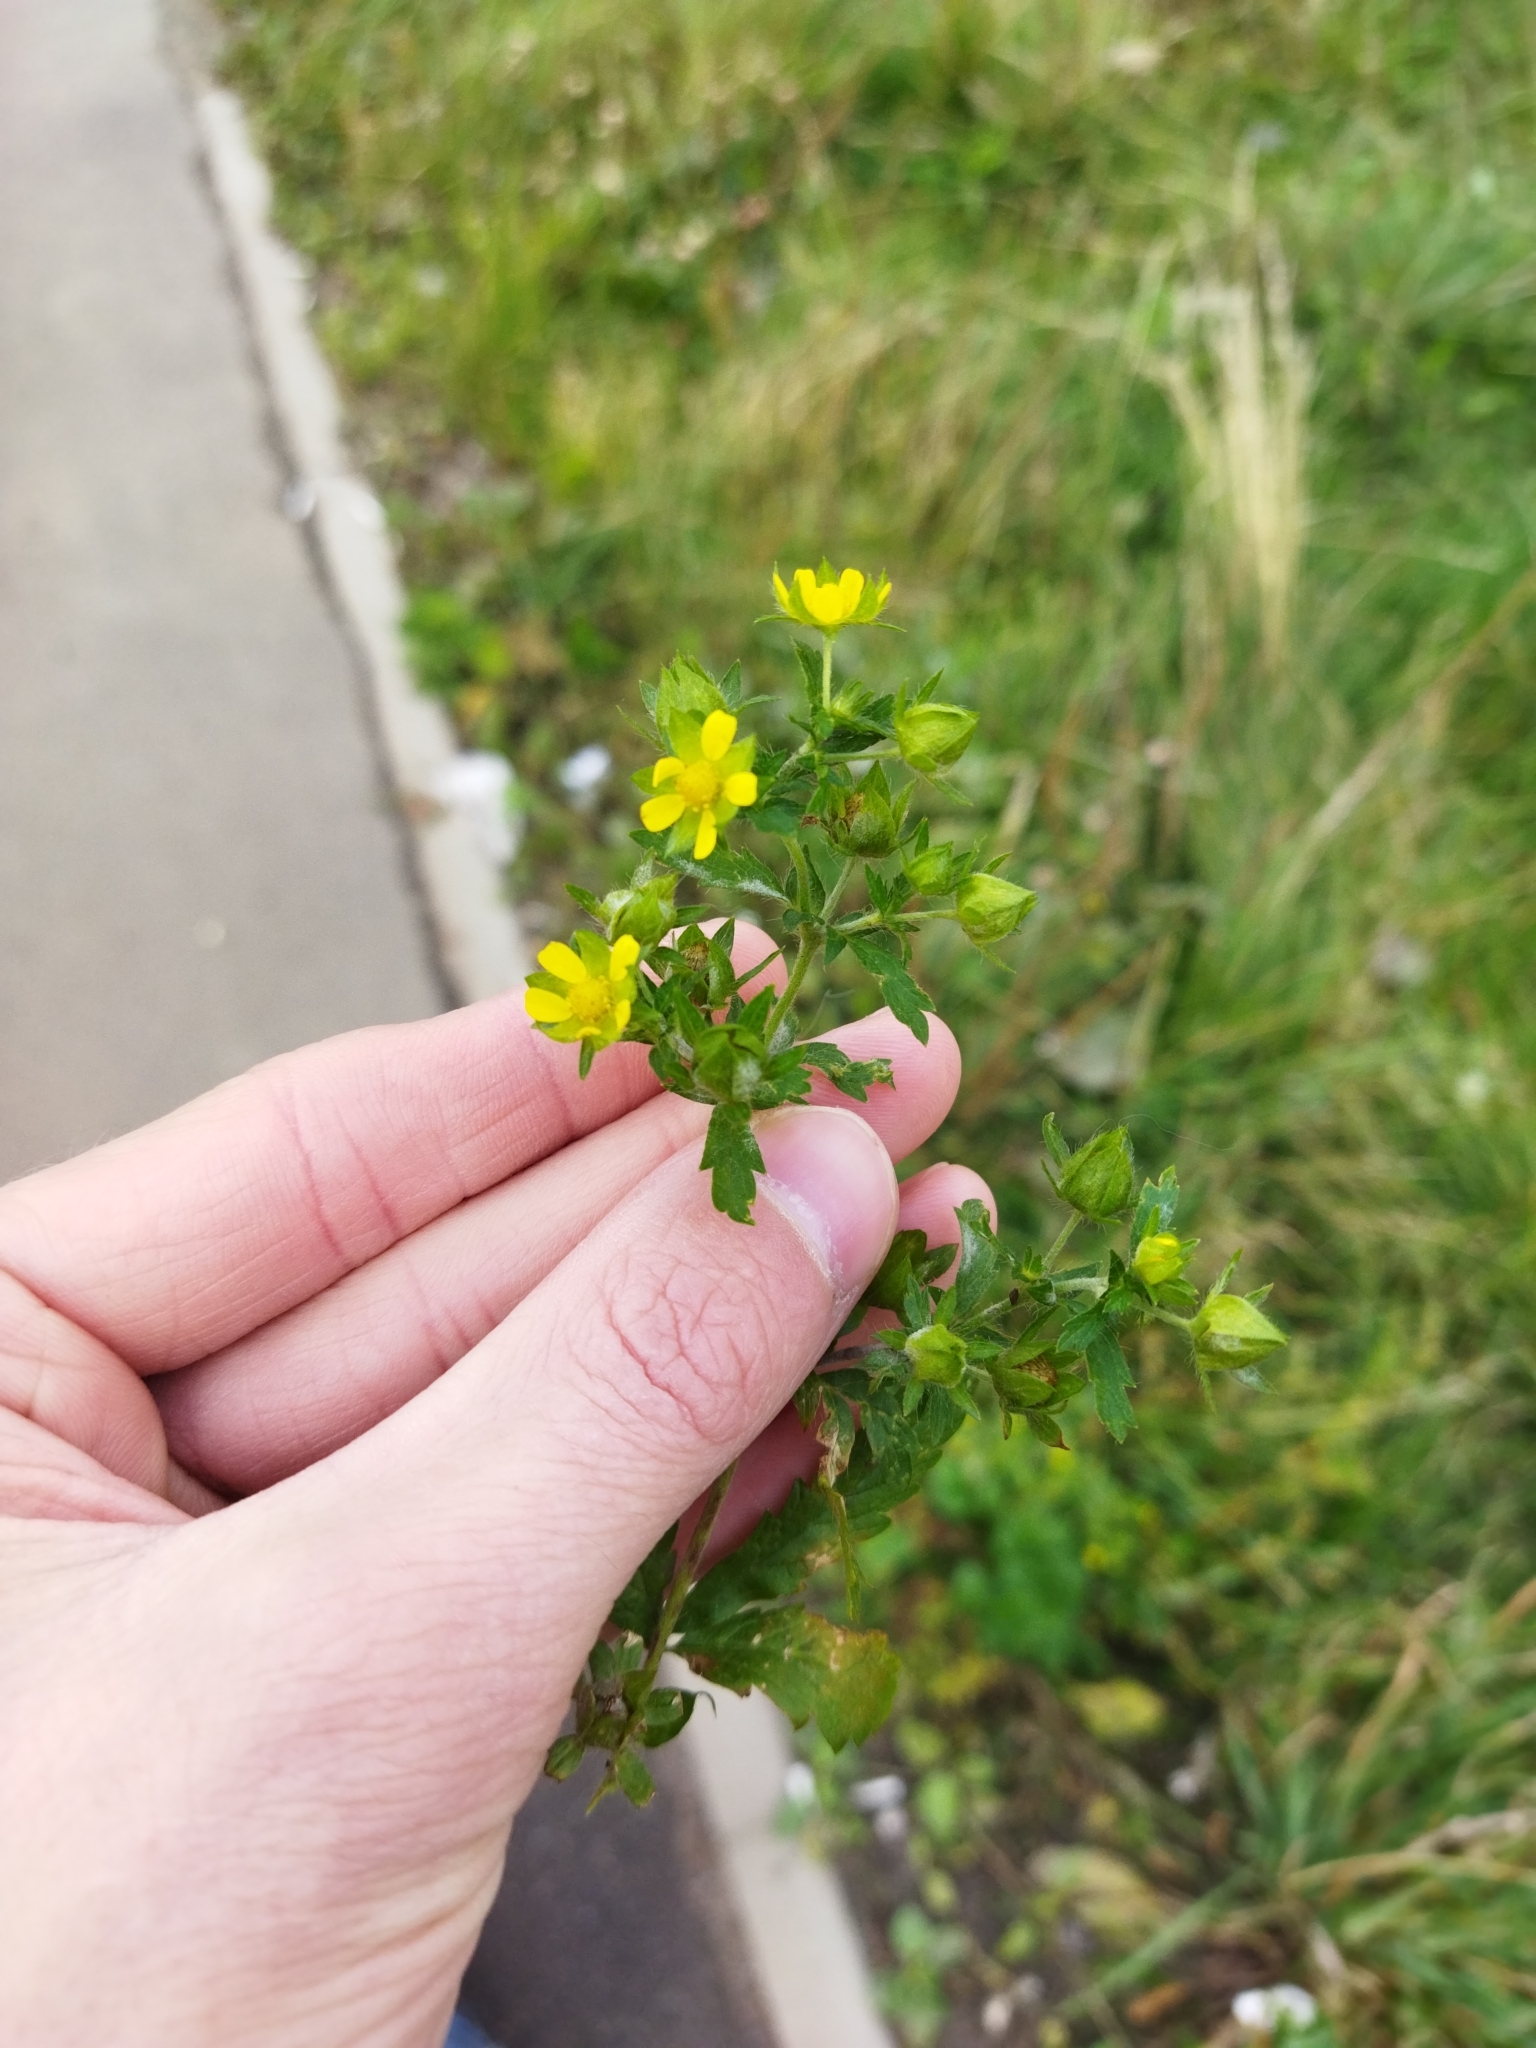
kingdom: Plantae
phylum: Tracheophyta
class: Magnoliopsida
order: Rosales
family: Rosaceae
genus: Potentilla
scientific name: Potentilla norvegica
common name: Ternate-leaved cinquefoil
